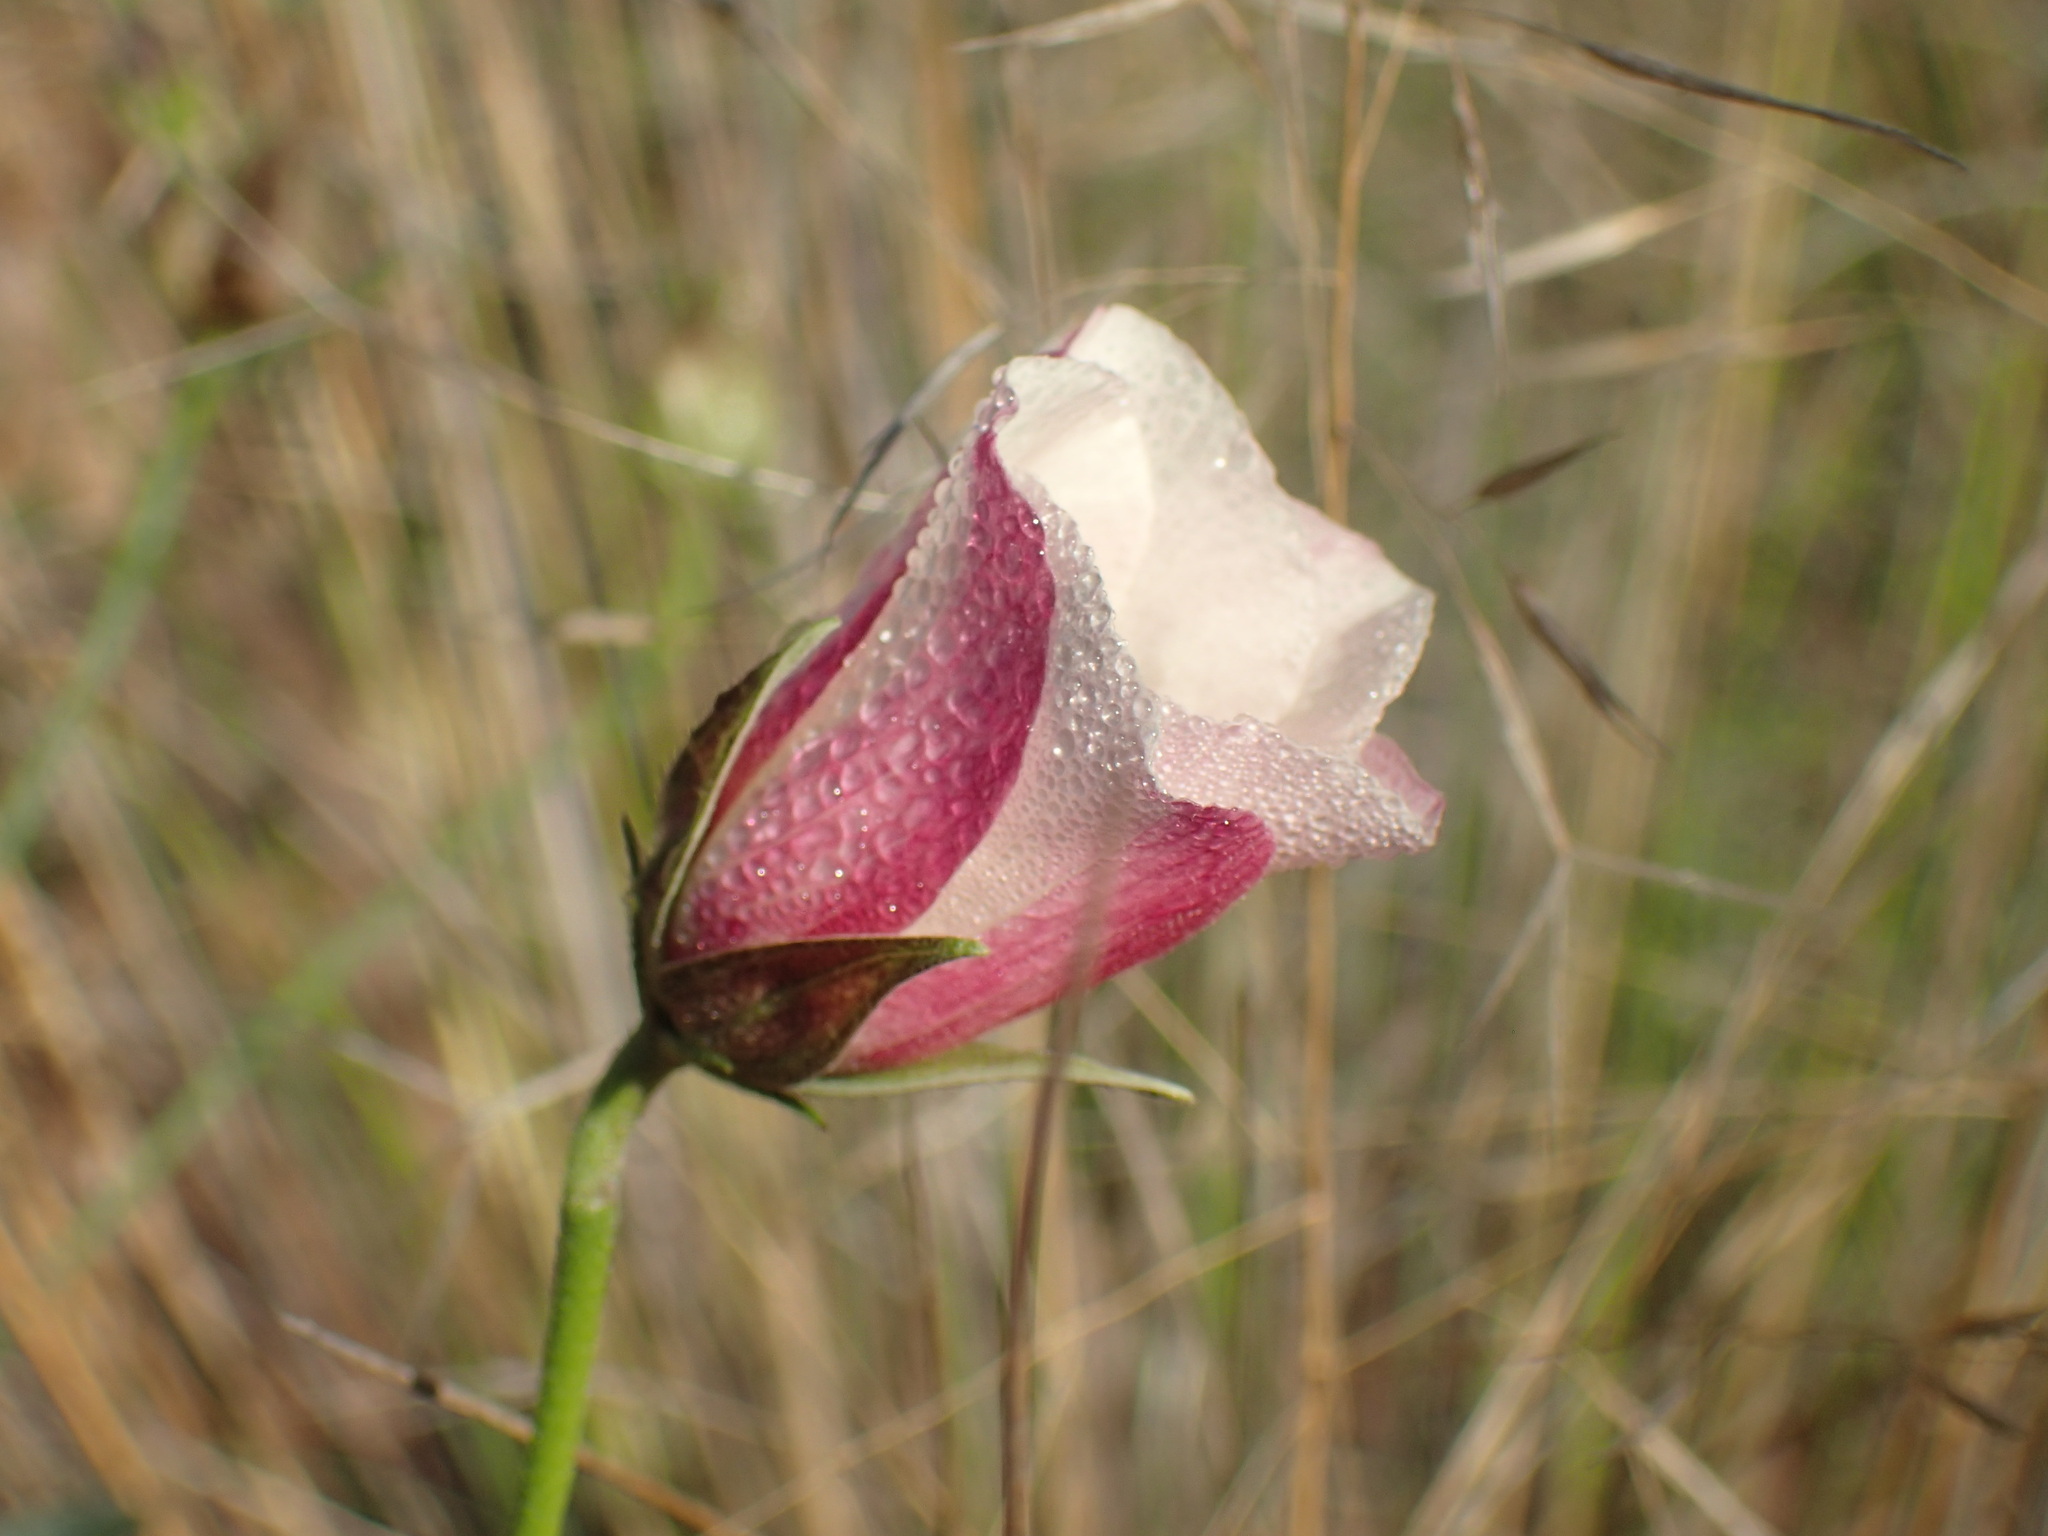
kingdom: Plantae
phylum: Tracheophyta
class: Magnoliopsida
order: Malvales
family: Malvaceae
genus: Hibiscus
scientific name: Hibiscus pusillus
